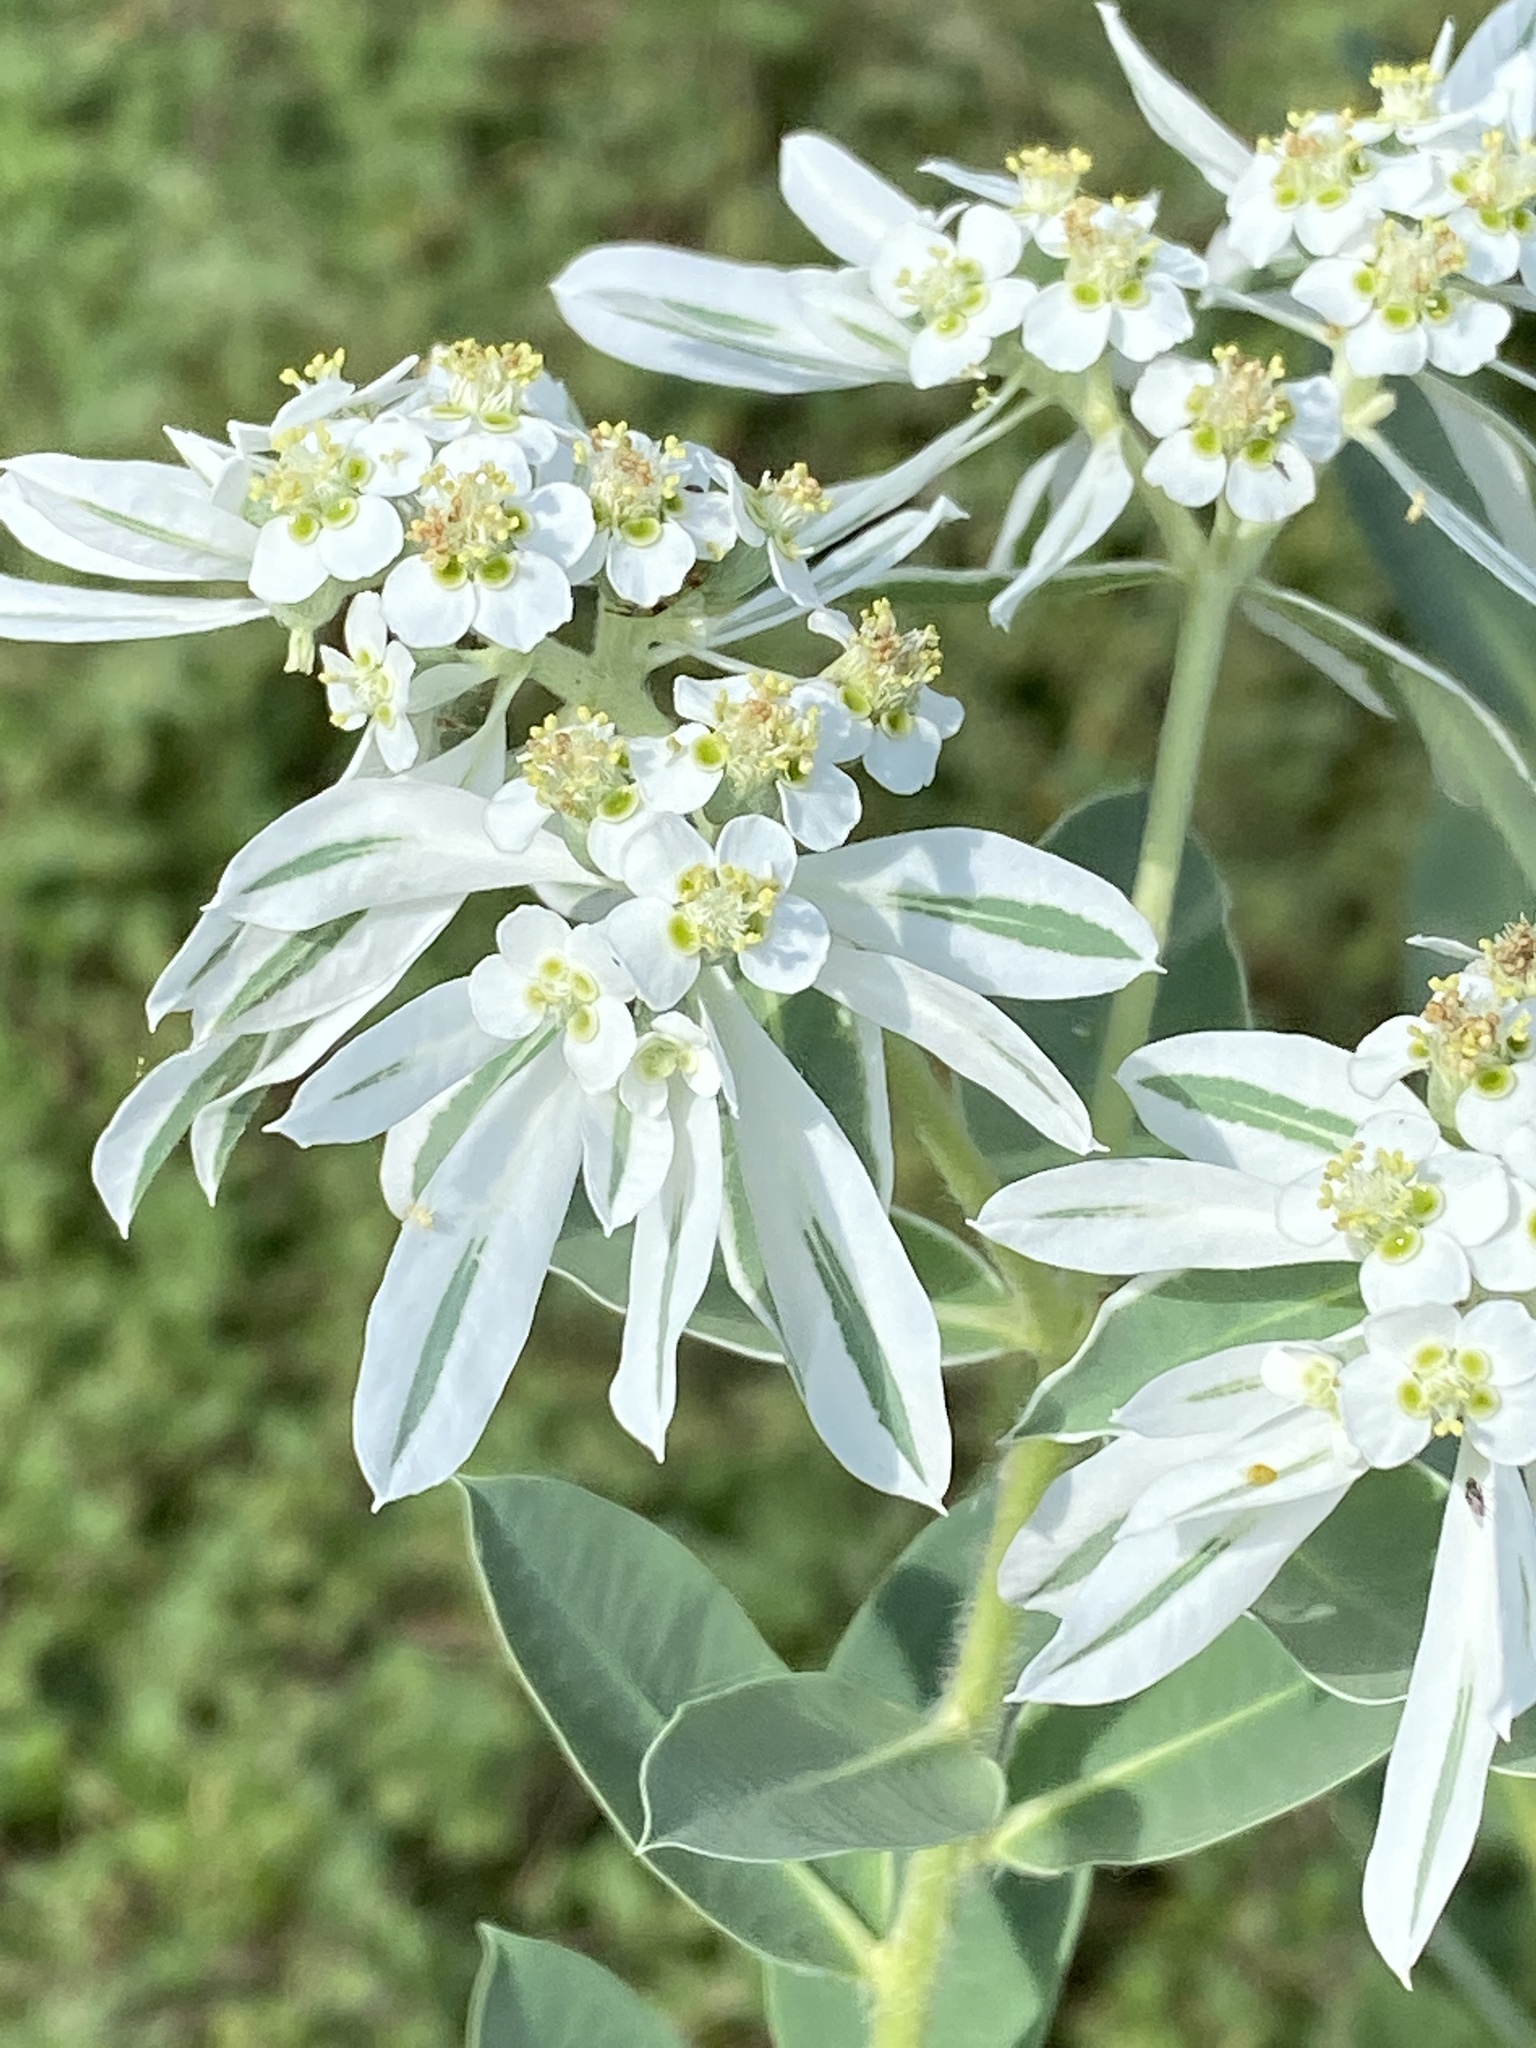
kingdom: Plantae
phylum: Tracheophyta
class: Magnoliopsida
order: Malpighiales
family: Euphorbiaceae
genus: Euphorbia
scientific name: Euphorbia marginata
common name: Ghostweed
